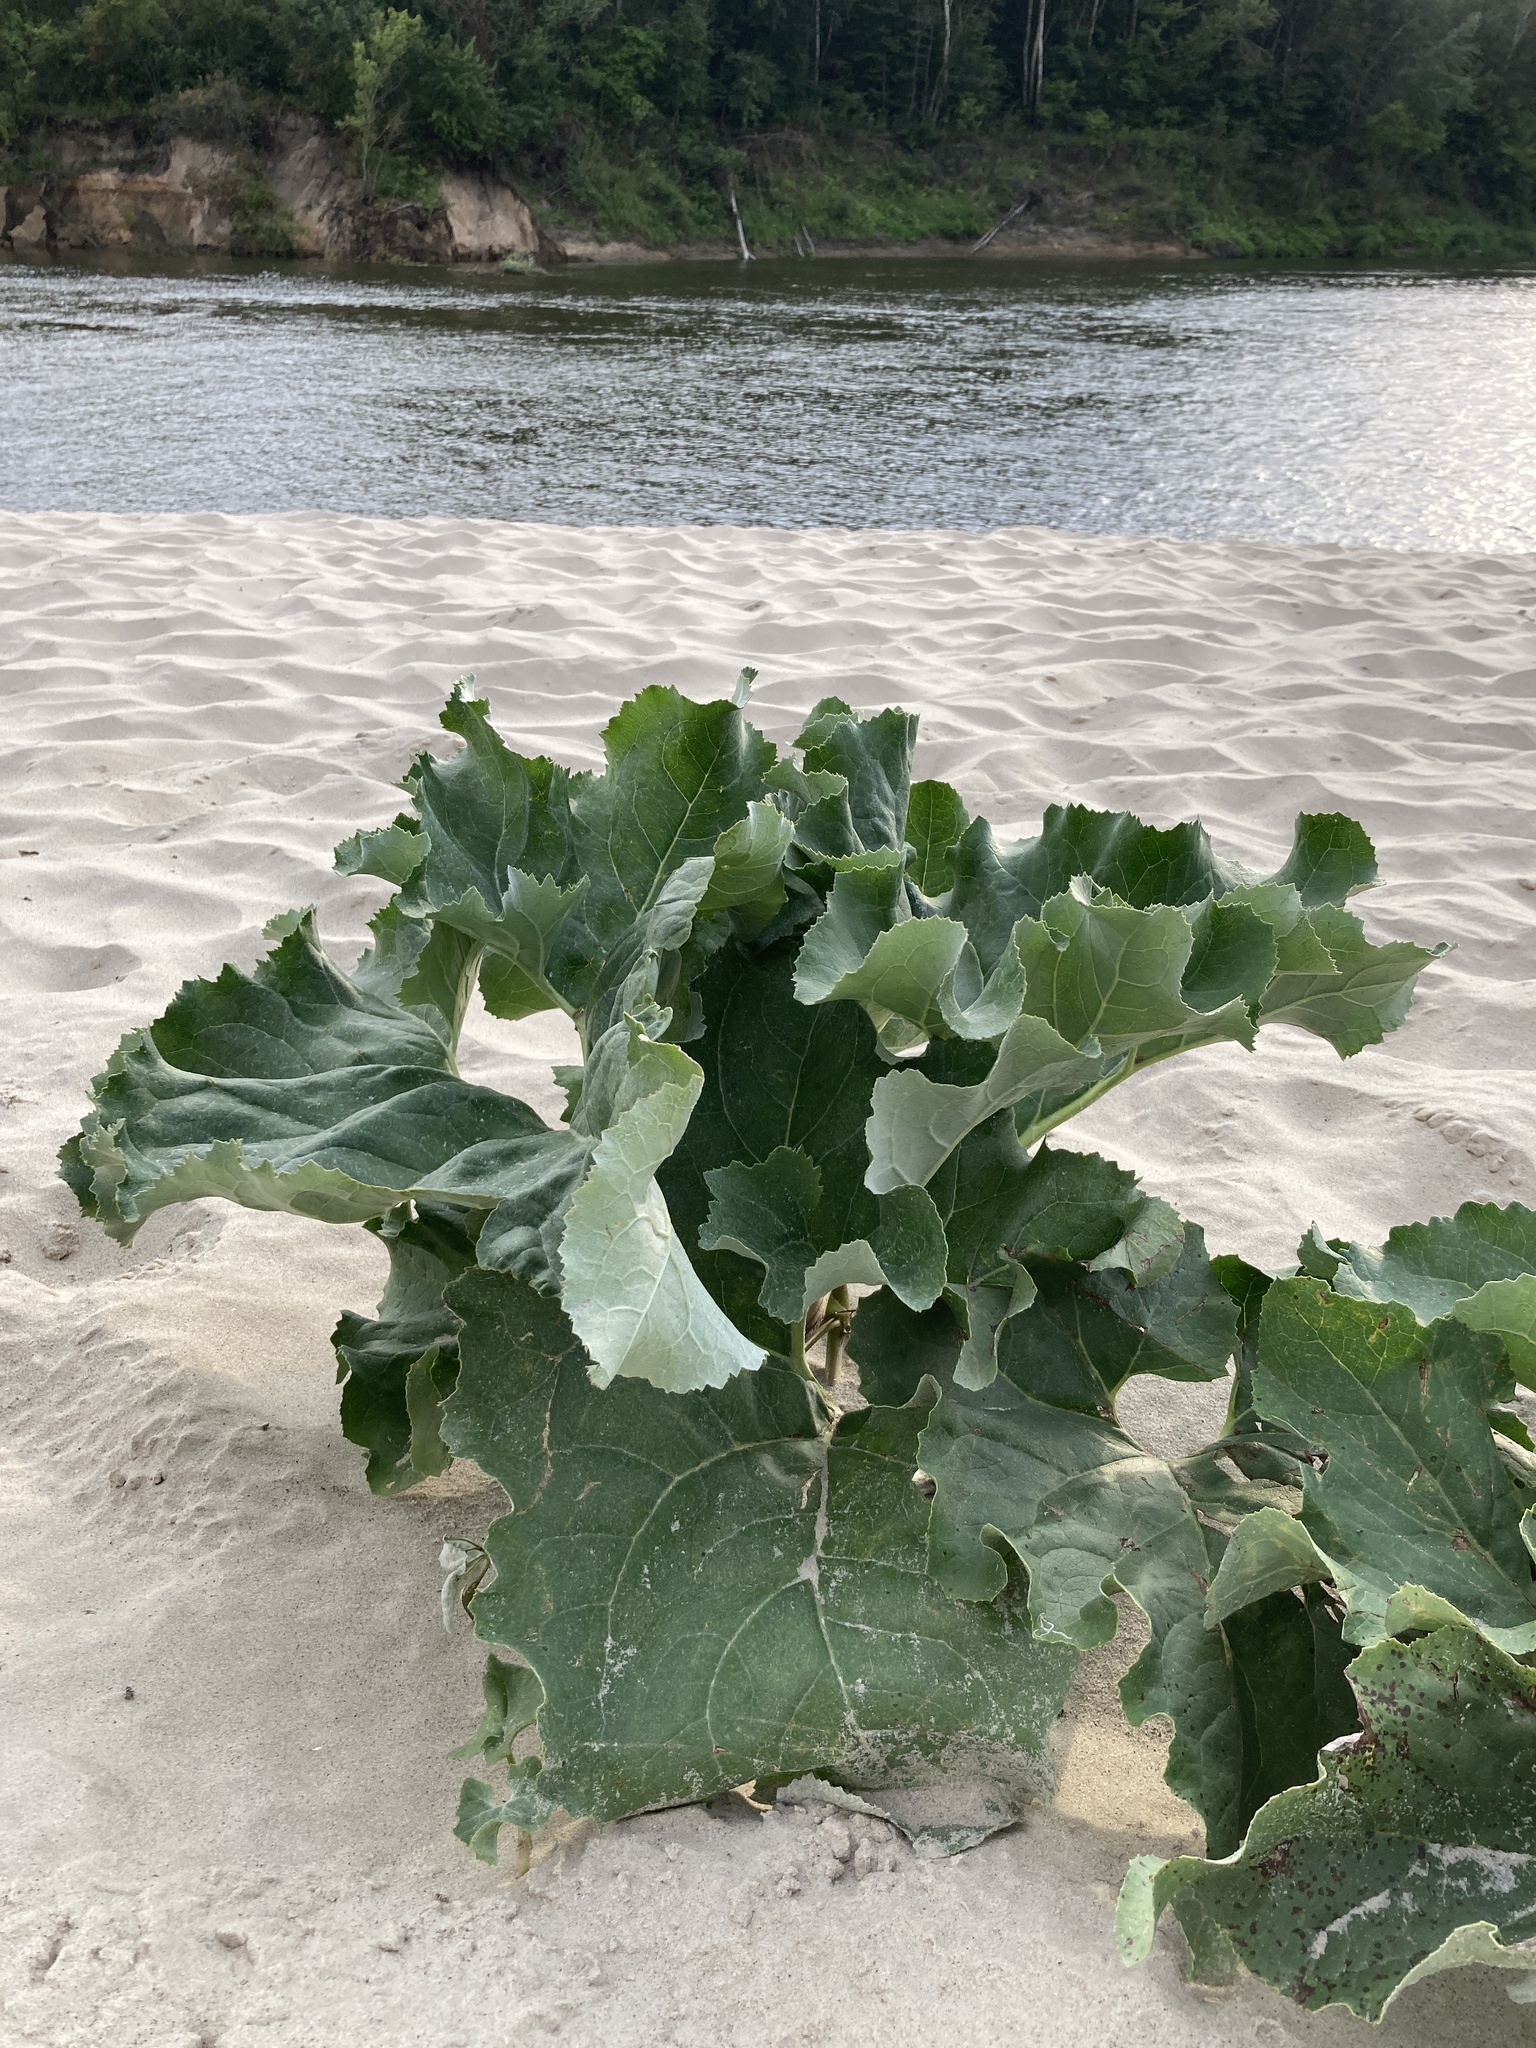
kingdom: Plantae
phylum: Tracheophyta
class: Magnoliopsida
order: Asterales
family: Asteraceae
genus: Petasites
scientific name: Petasites spurius
